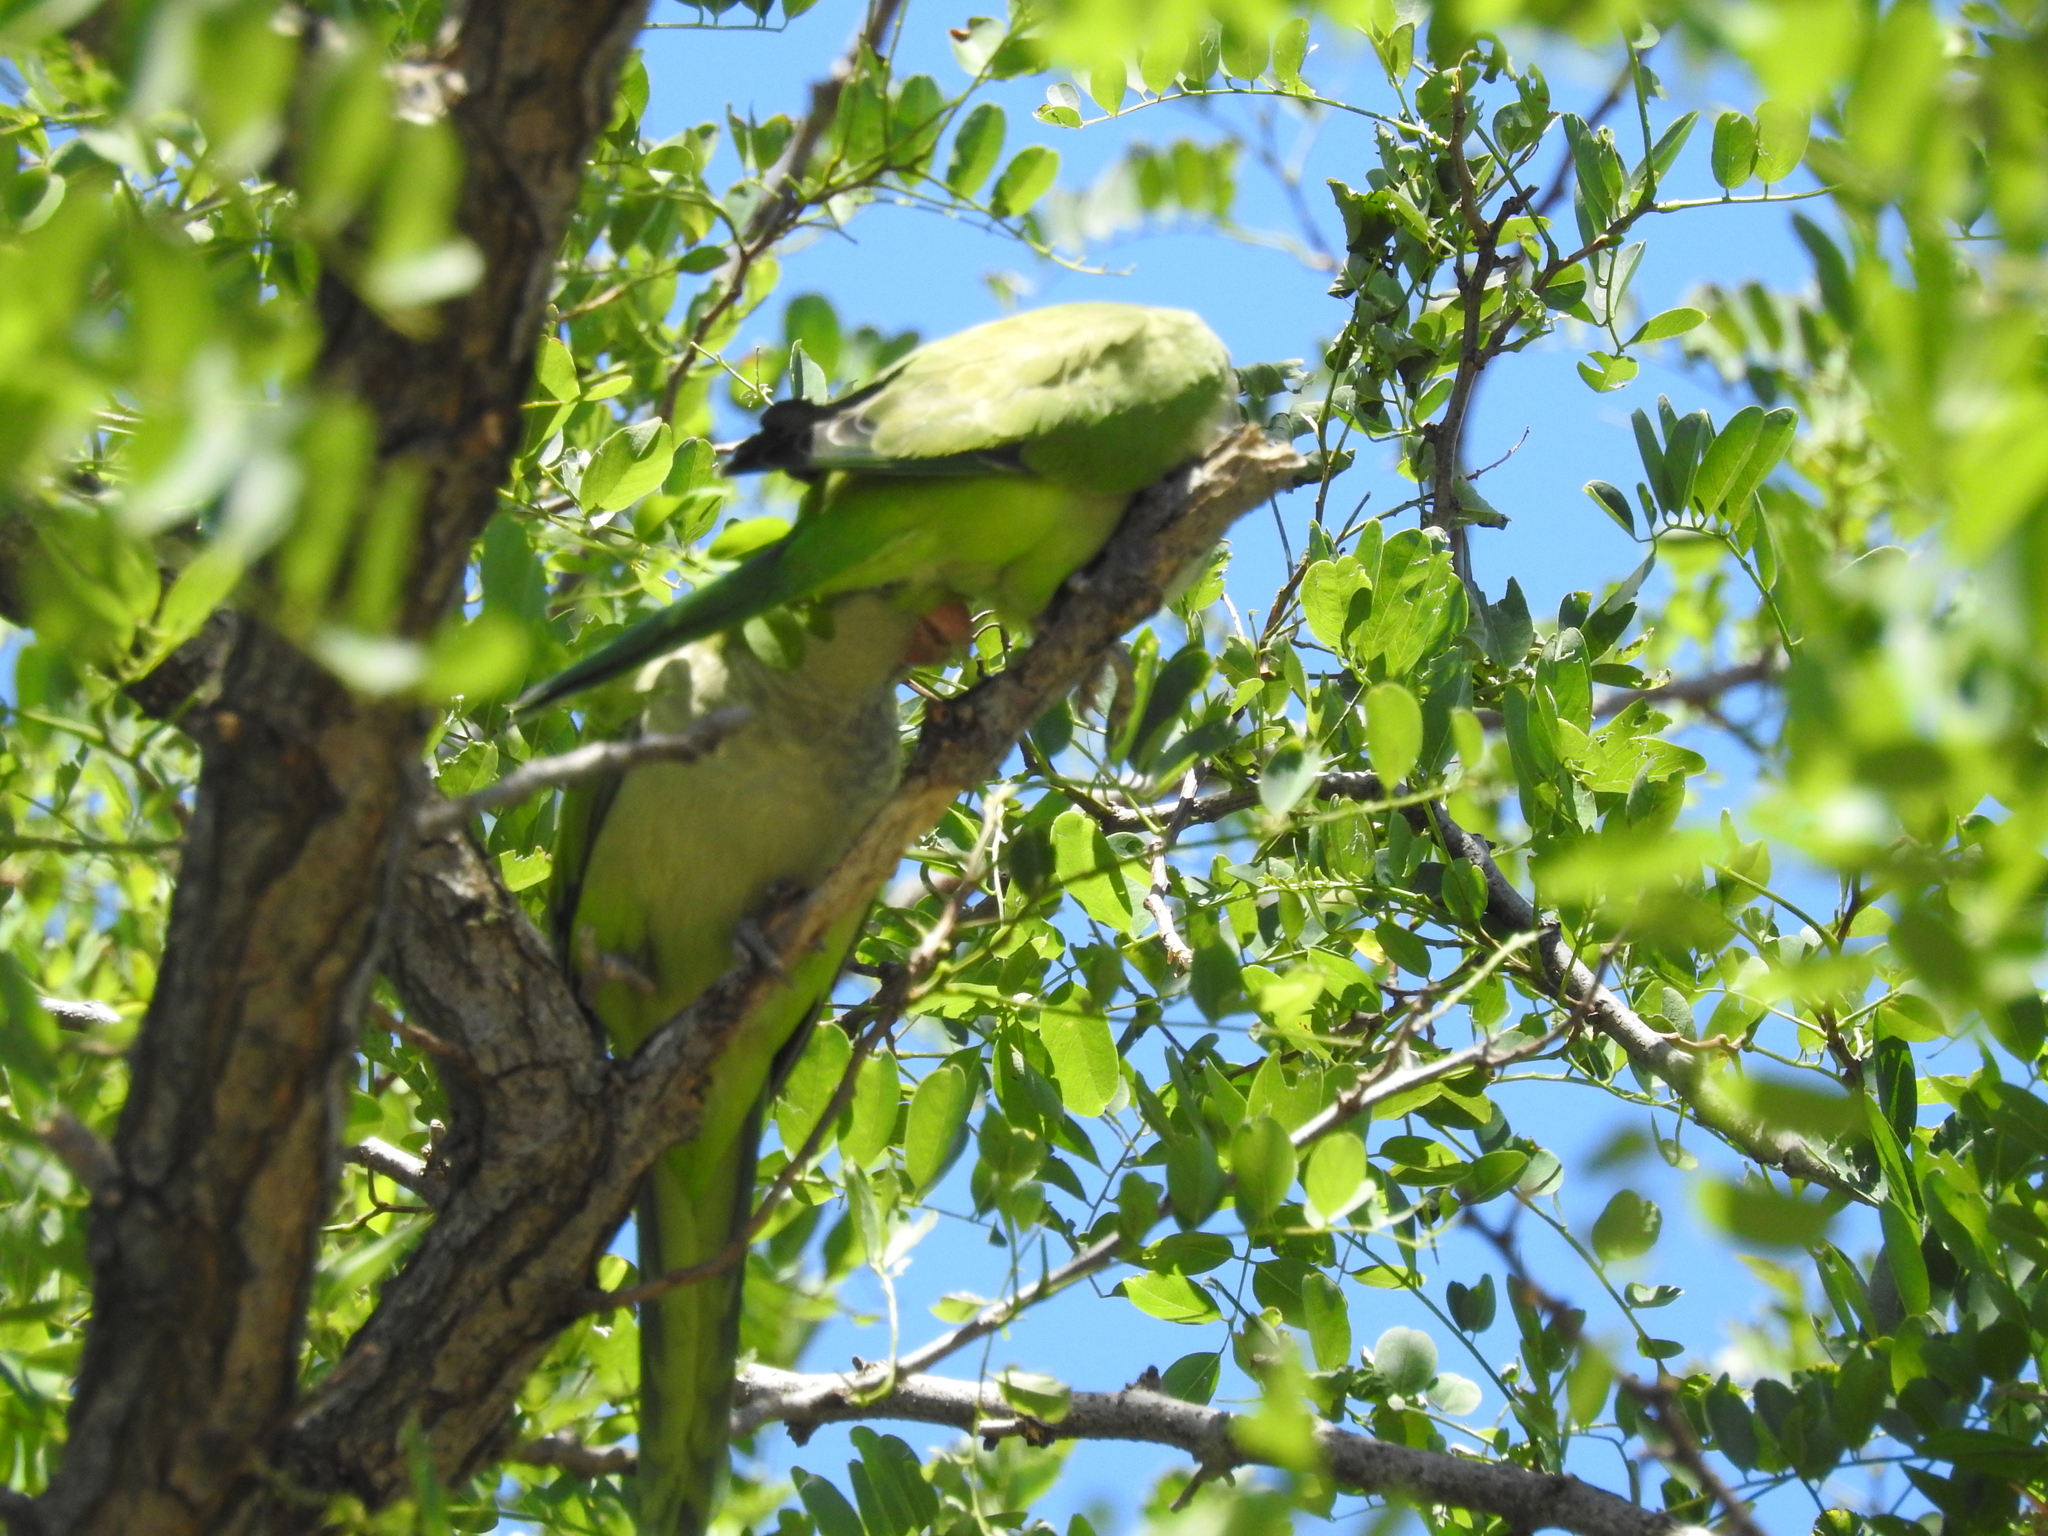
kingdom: Animalia
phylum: Chordata
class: Aves
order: Psittaciformes
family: Psittacidae
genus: Myiopsitta
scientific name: Myiopsitta monachus
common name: Monk parakeet
